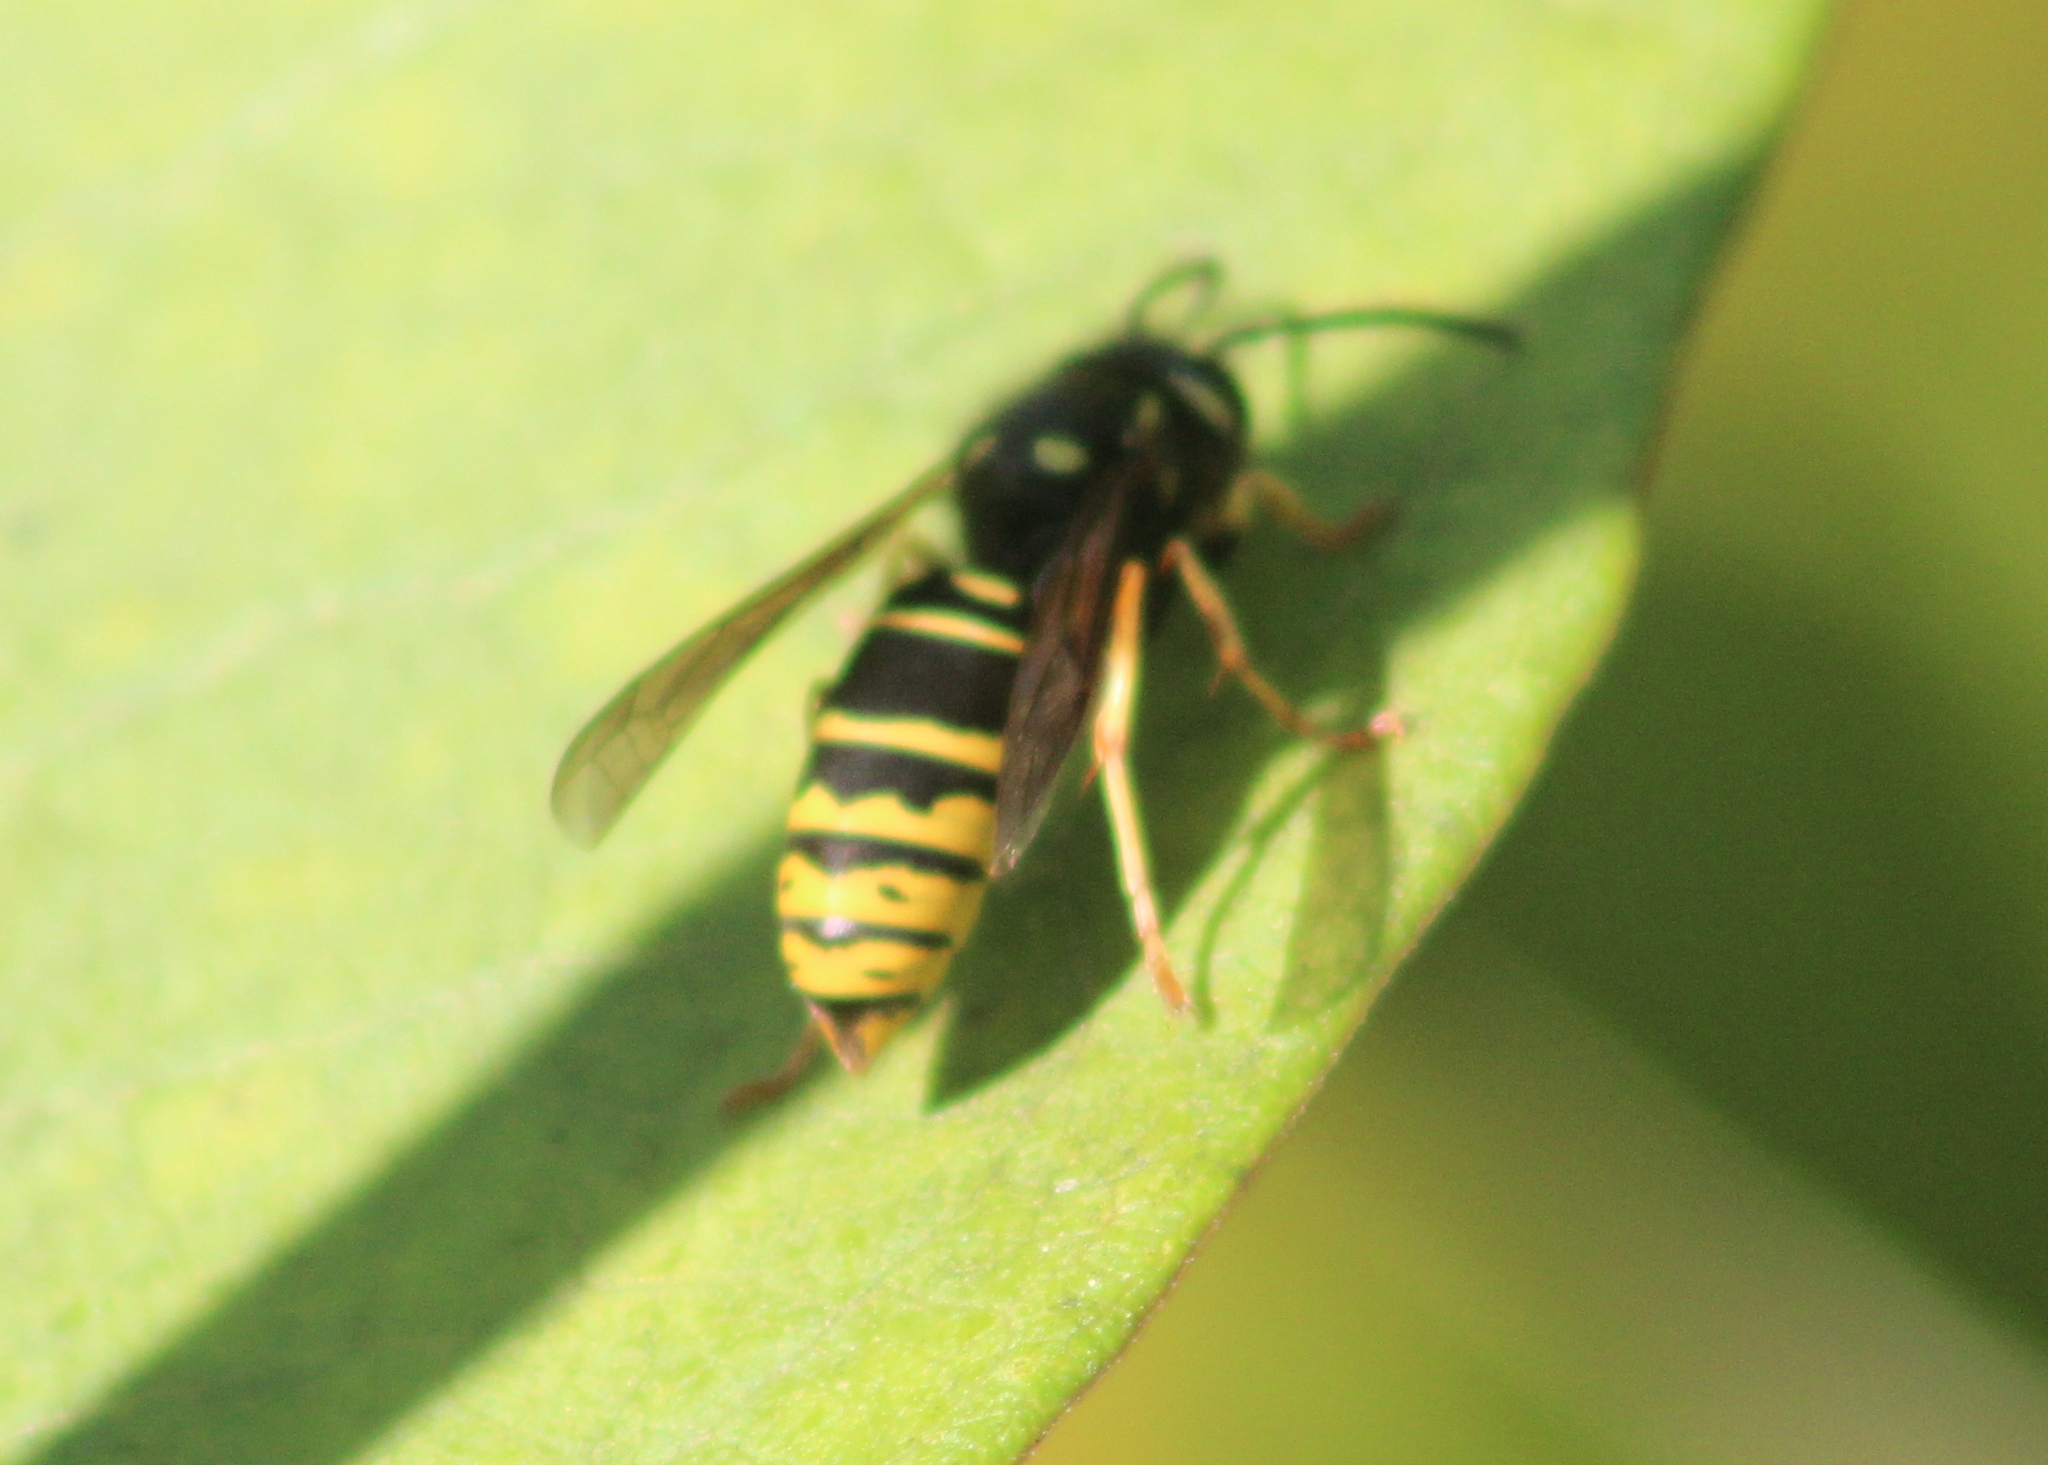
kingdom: Animalia
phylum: Arthropoda
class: Insecta
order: Hymenoptera
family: Vespidae
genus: Vespula
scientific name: Vespula vidua
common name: Widow yellowjacket
